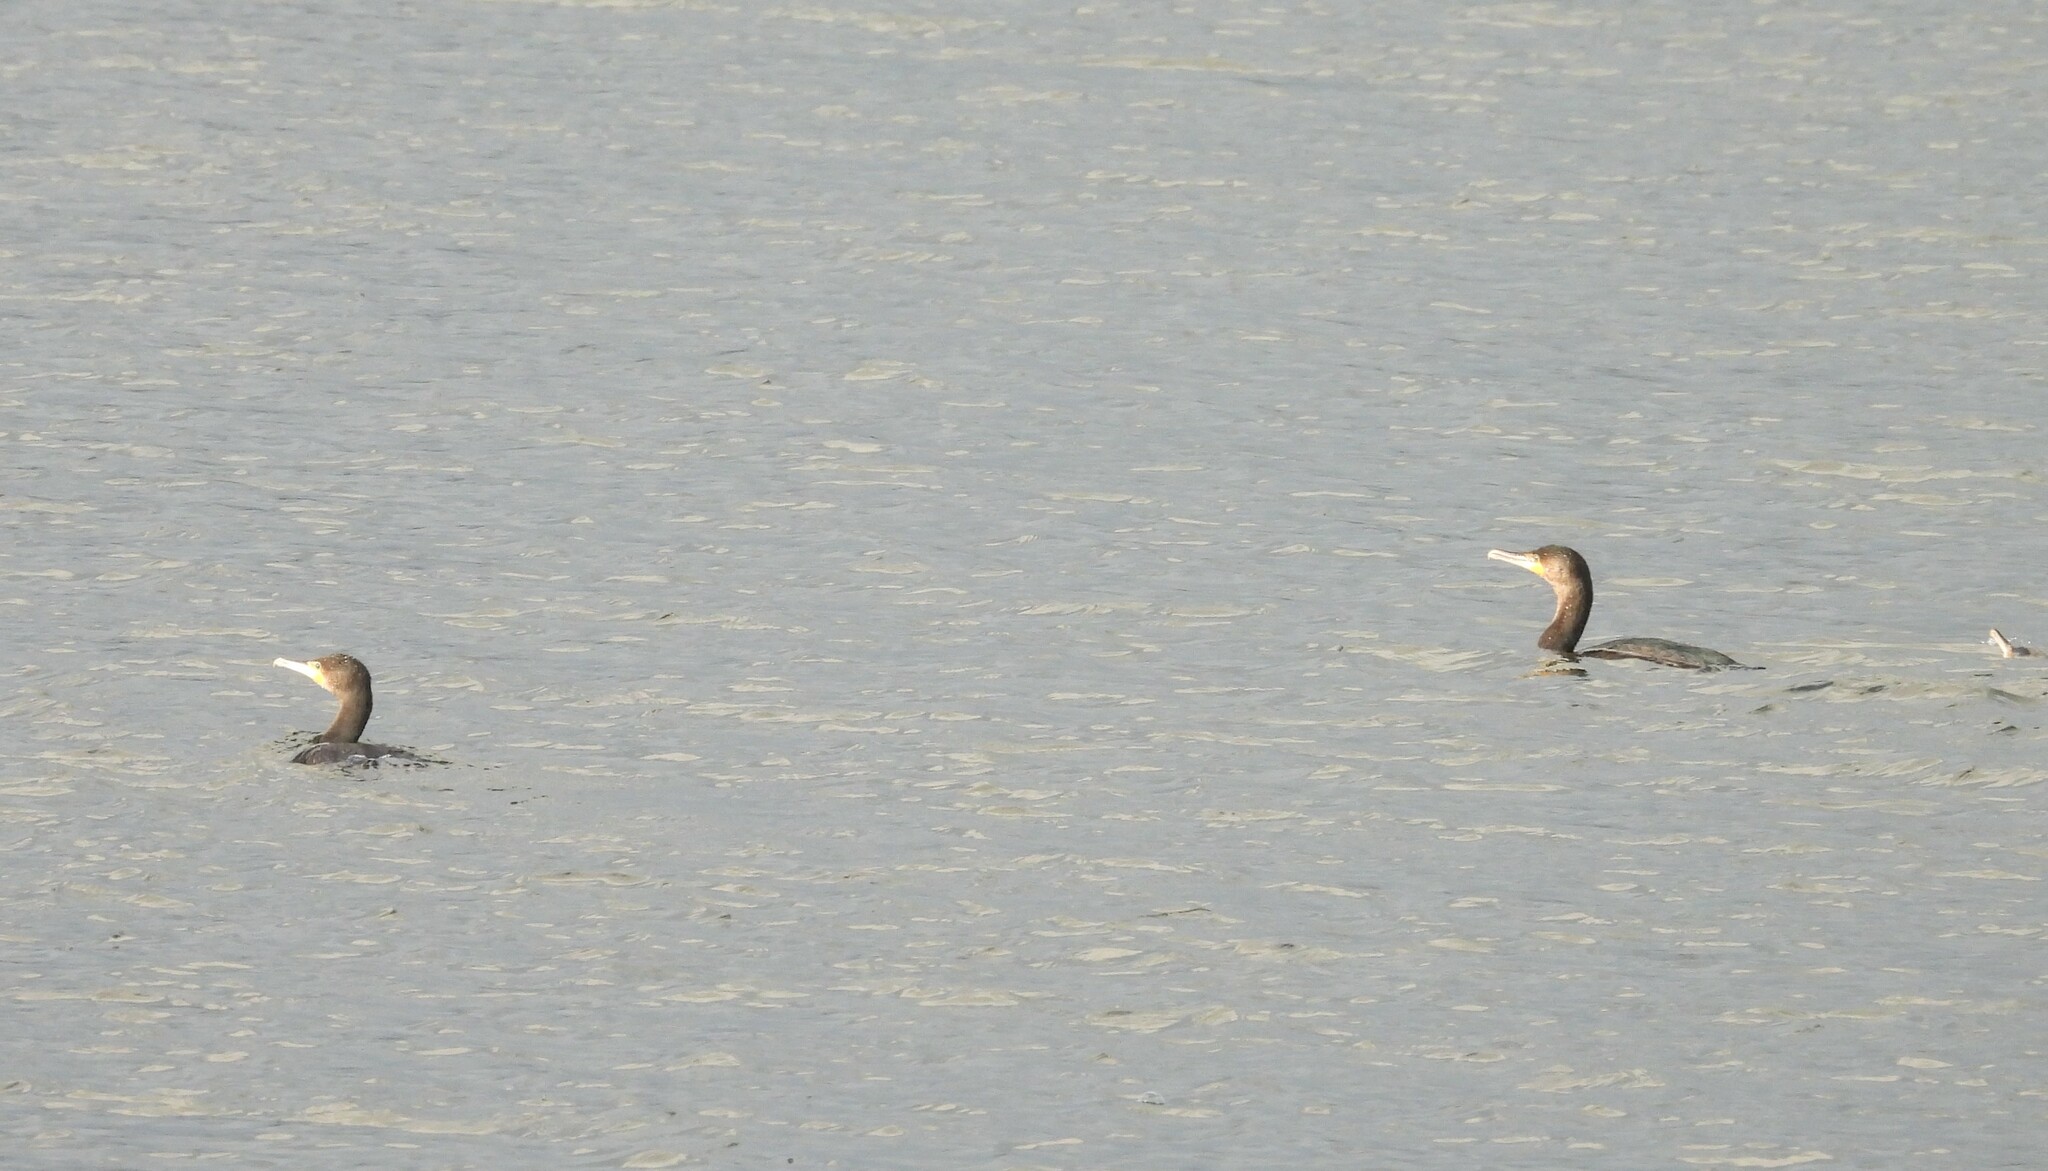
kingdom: Animalia
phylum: Chordata
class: Aves
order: Suliformes
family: Phalacrocoracidae
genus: Phalacrocorax
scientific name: Phalacrocorax carbo
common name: Great cormorant
